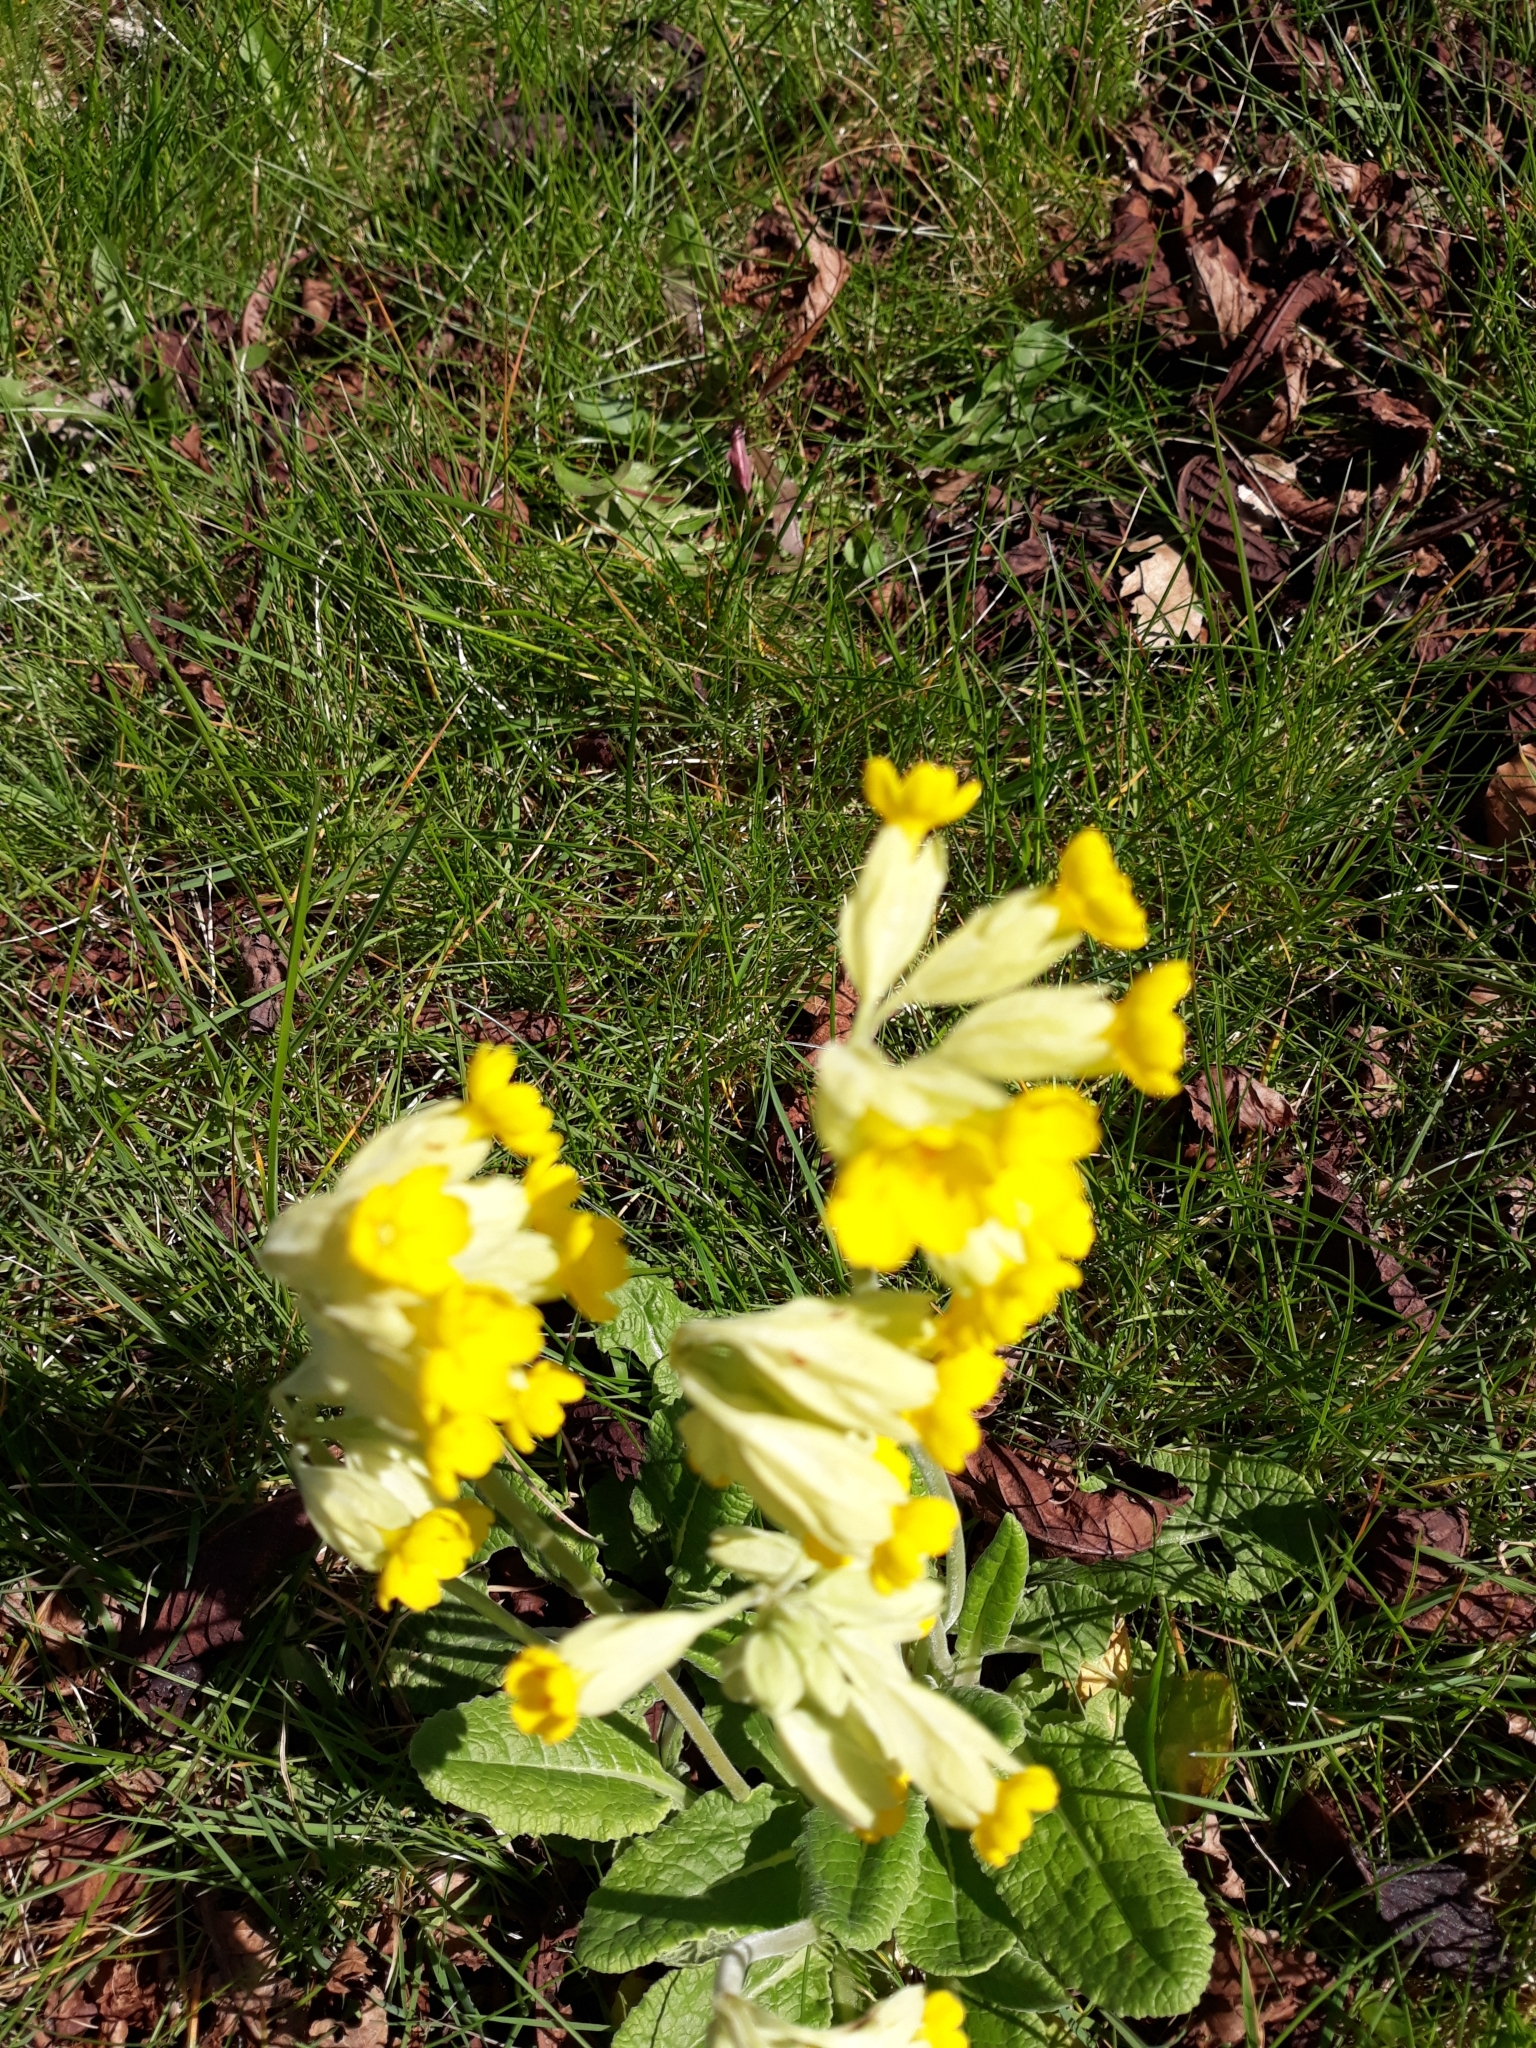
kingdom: Plantae
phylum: Tracheophyta
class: Magnoliopsida
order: Ericales
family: Primulaceae
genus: Primula
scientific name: Primula veris
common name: Cowslip
